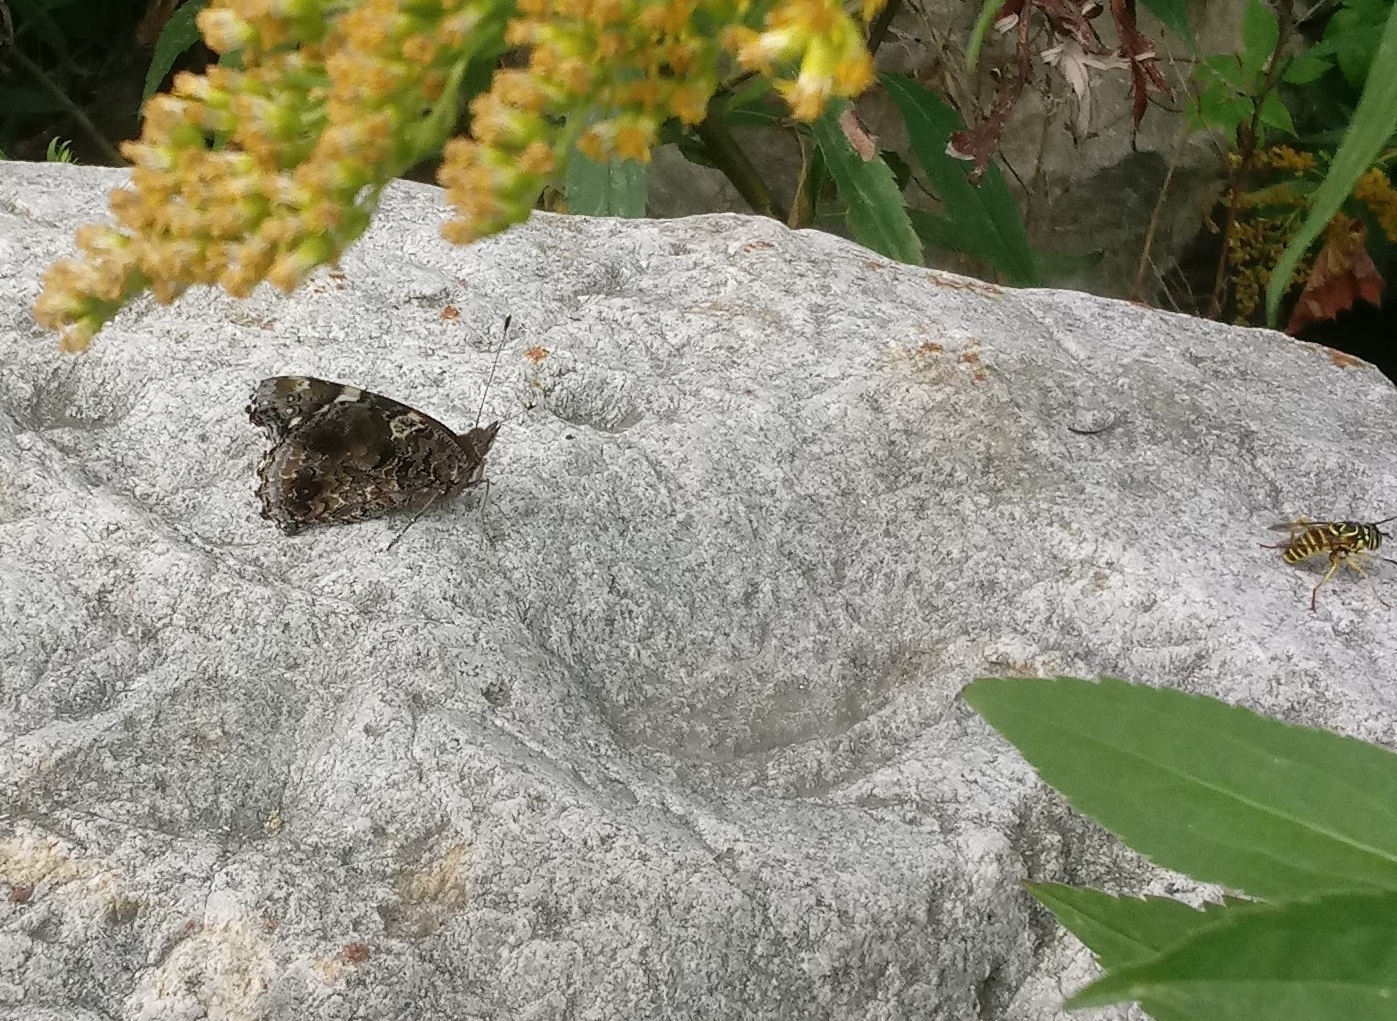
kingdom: Animalia
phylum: Arthropoda
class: Insecta
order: Lepidoptera
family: Nymphalidae
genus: Vanessa
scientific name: Vanessa atalanta
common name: Red admiral
